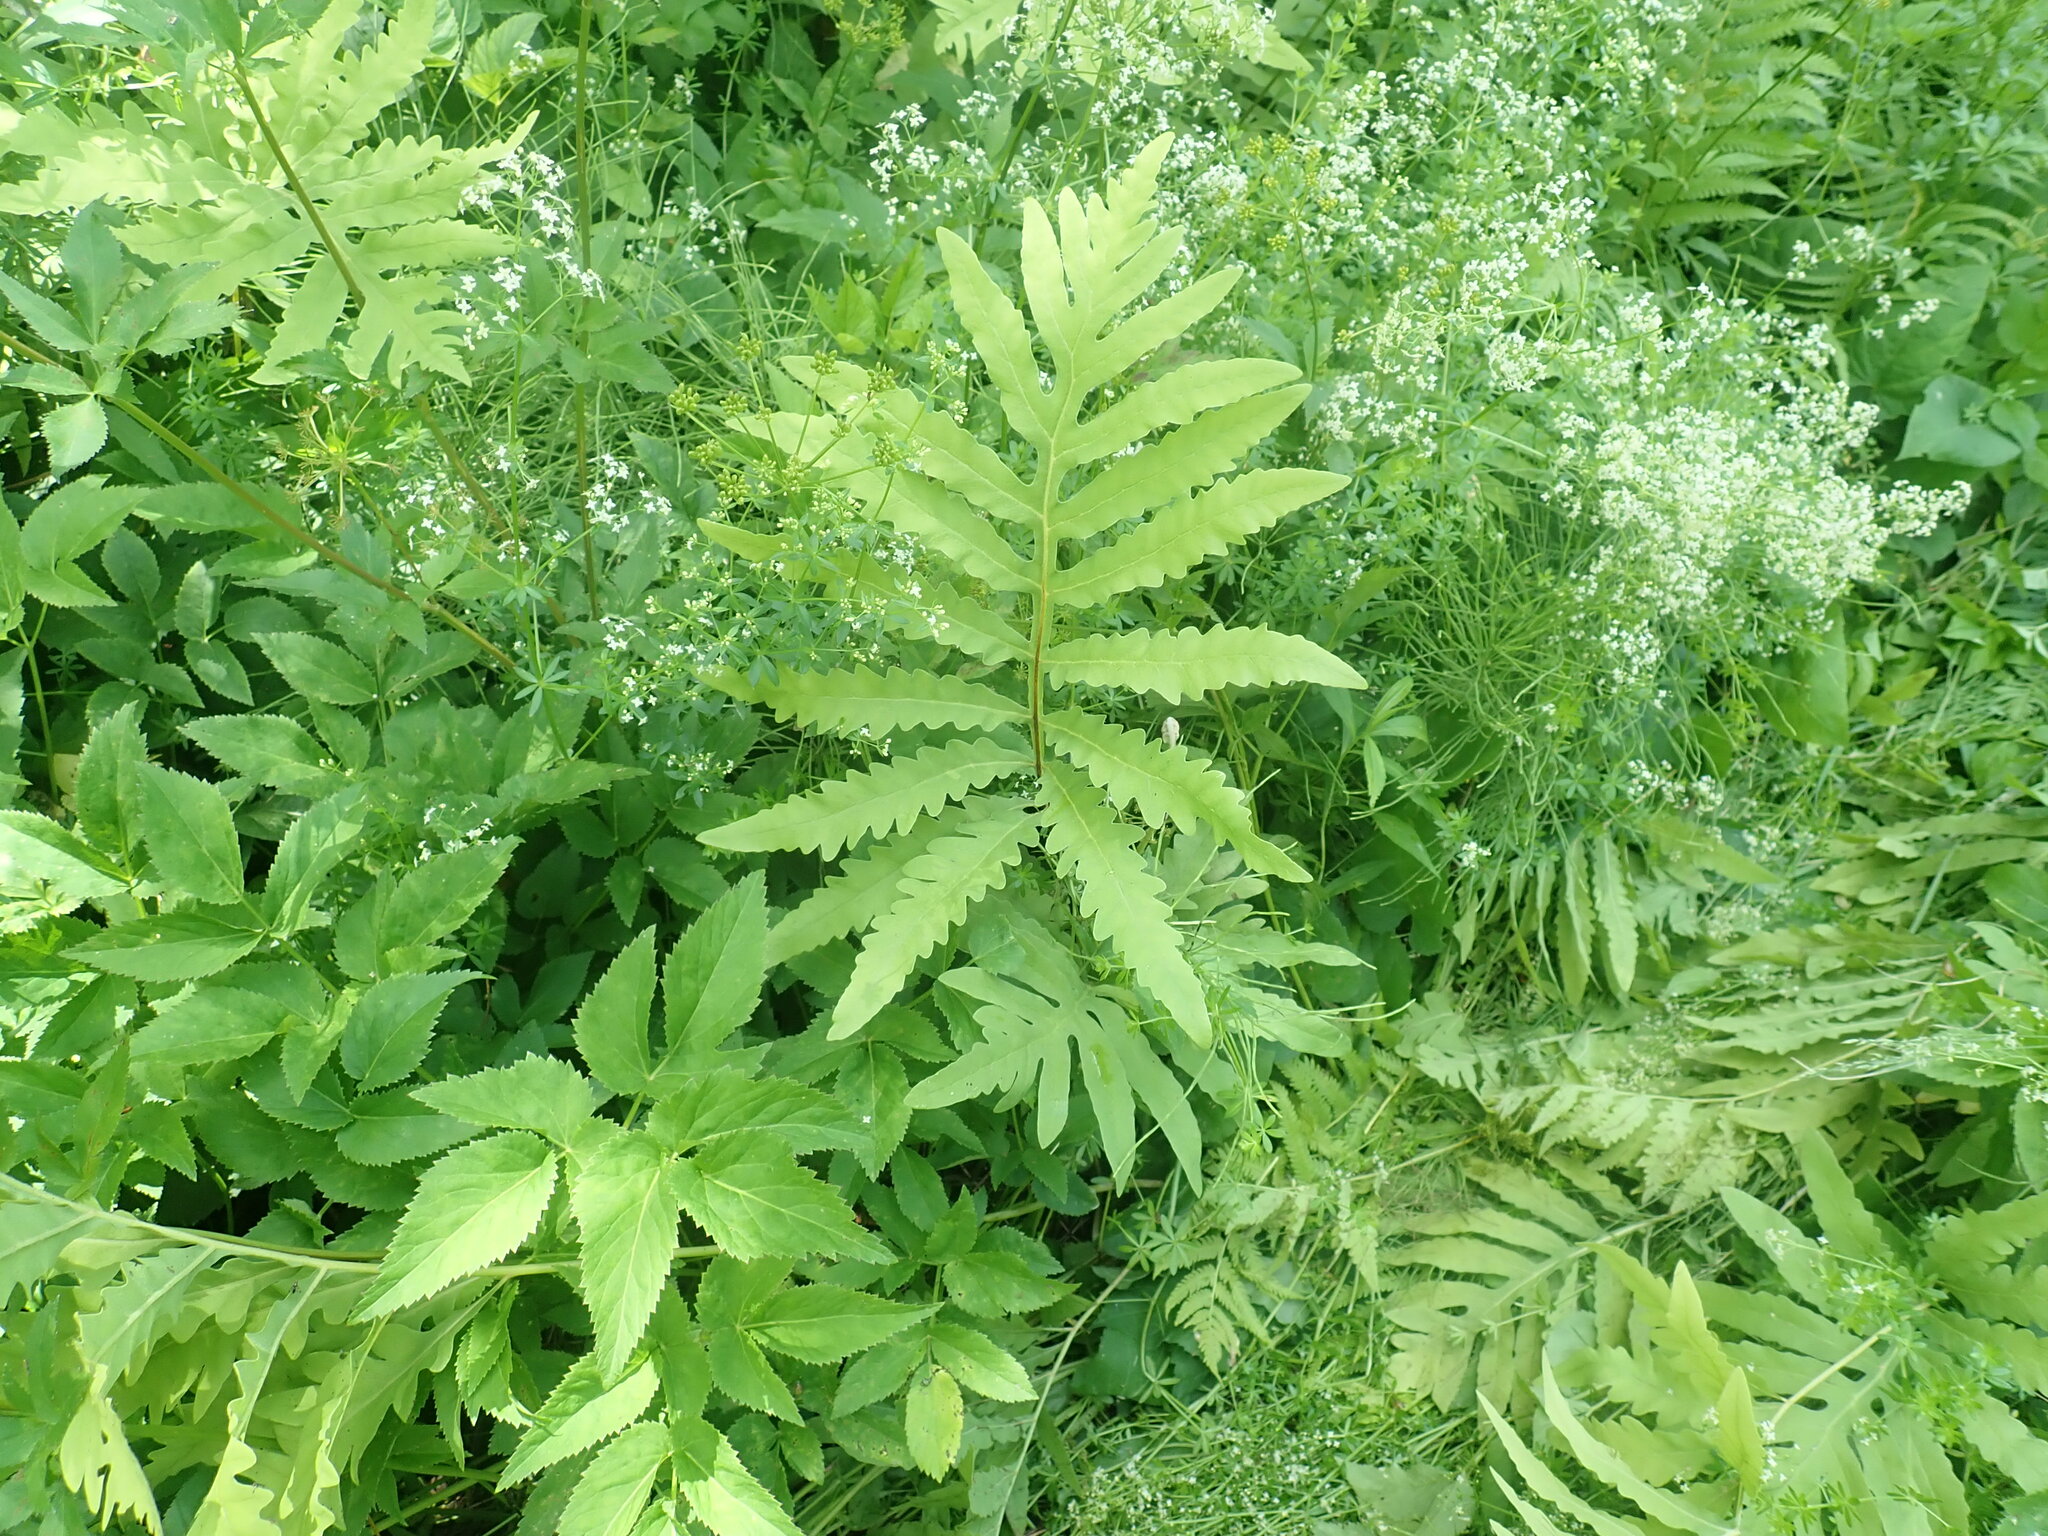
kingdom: Plantae
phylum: Tracheophyta
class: Polypodiopsida
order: Polypodiales
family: Onocleaceae
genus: Onoclea
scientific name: Onoclea sensibilis
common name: Sensitive fern
